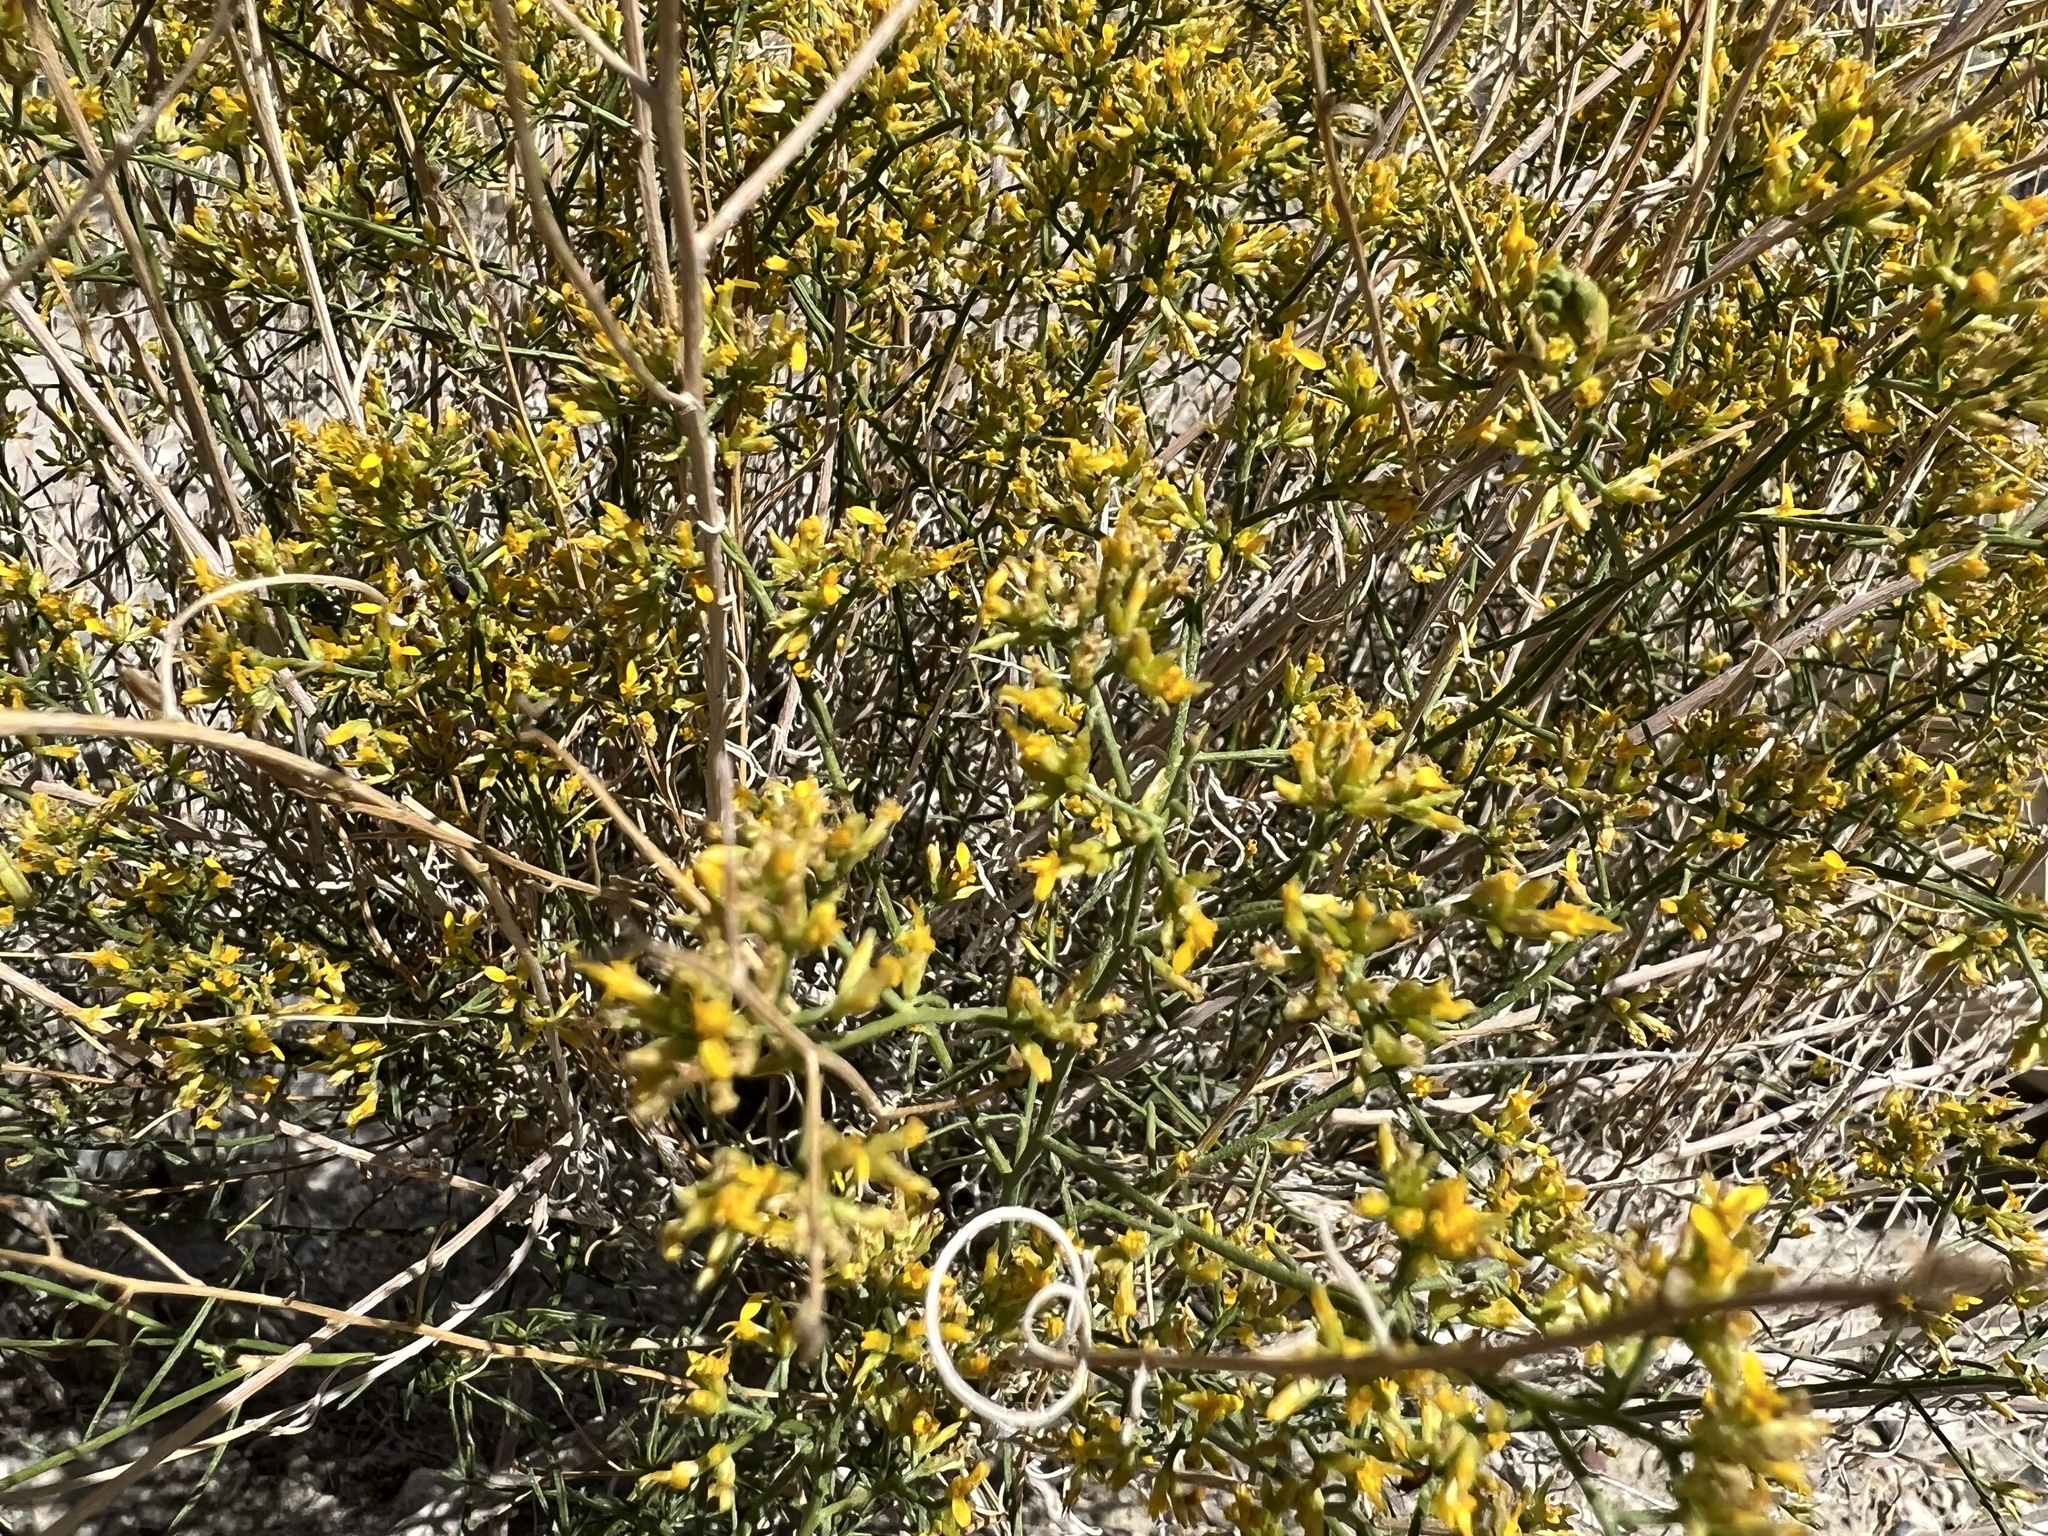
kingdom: Plantae
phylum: Tracheophyta
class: Magnoliopsida
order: Asterales
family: Asteraceae
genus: Gutierrezia
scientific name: Gutierrezia microcephala
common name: Thread snakeweed
